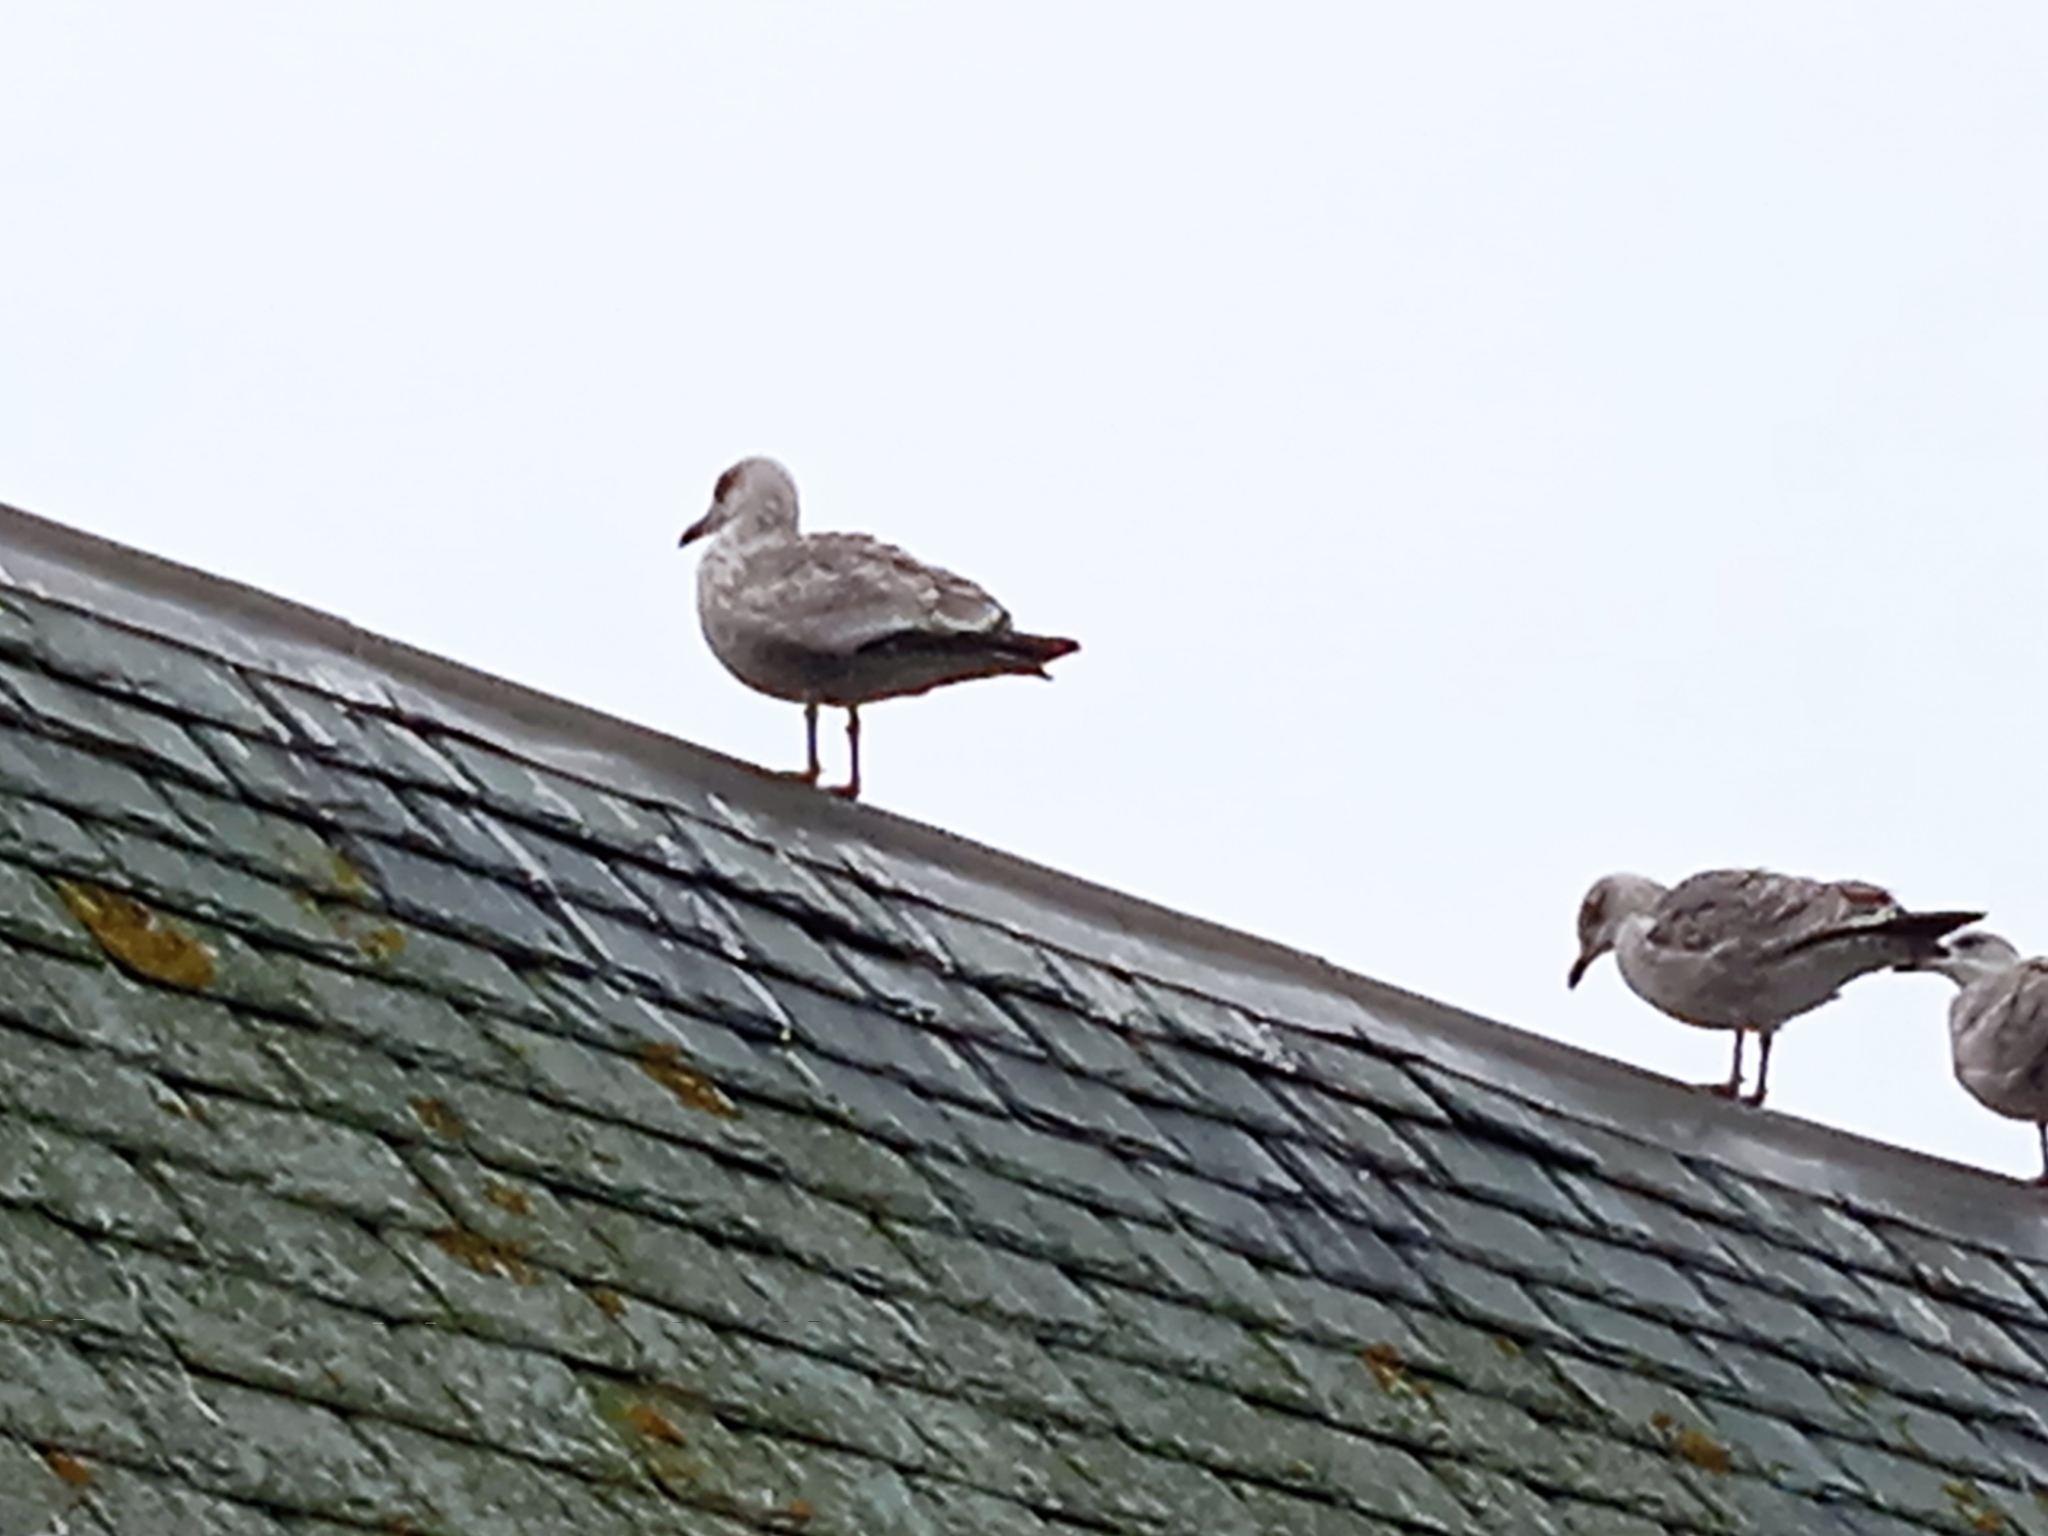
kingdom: Animalia
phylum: Chordata
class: Aves
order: Charadriiformes
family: Laridae
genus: Larus
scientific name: Larus
